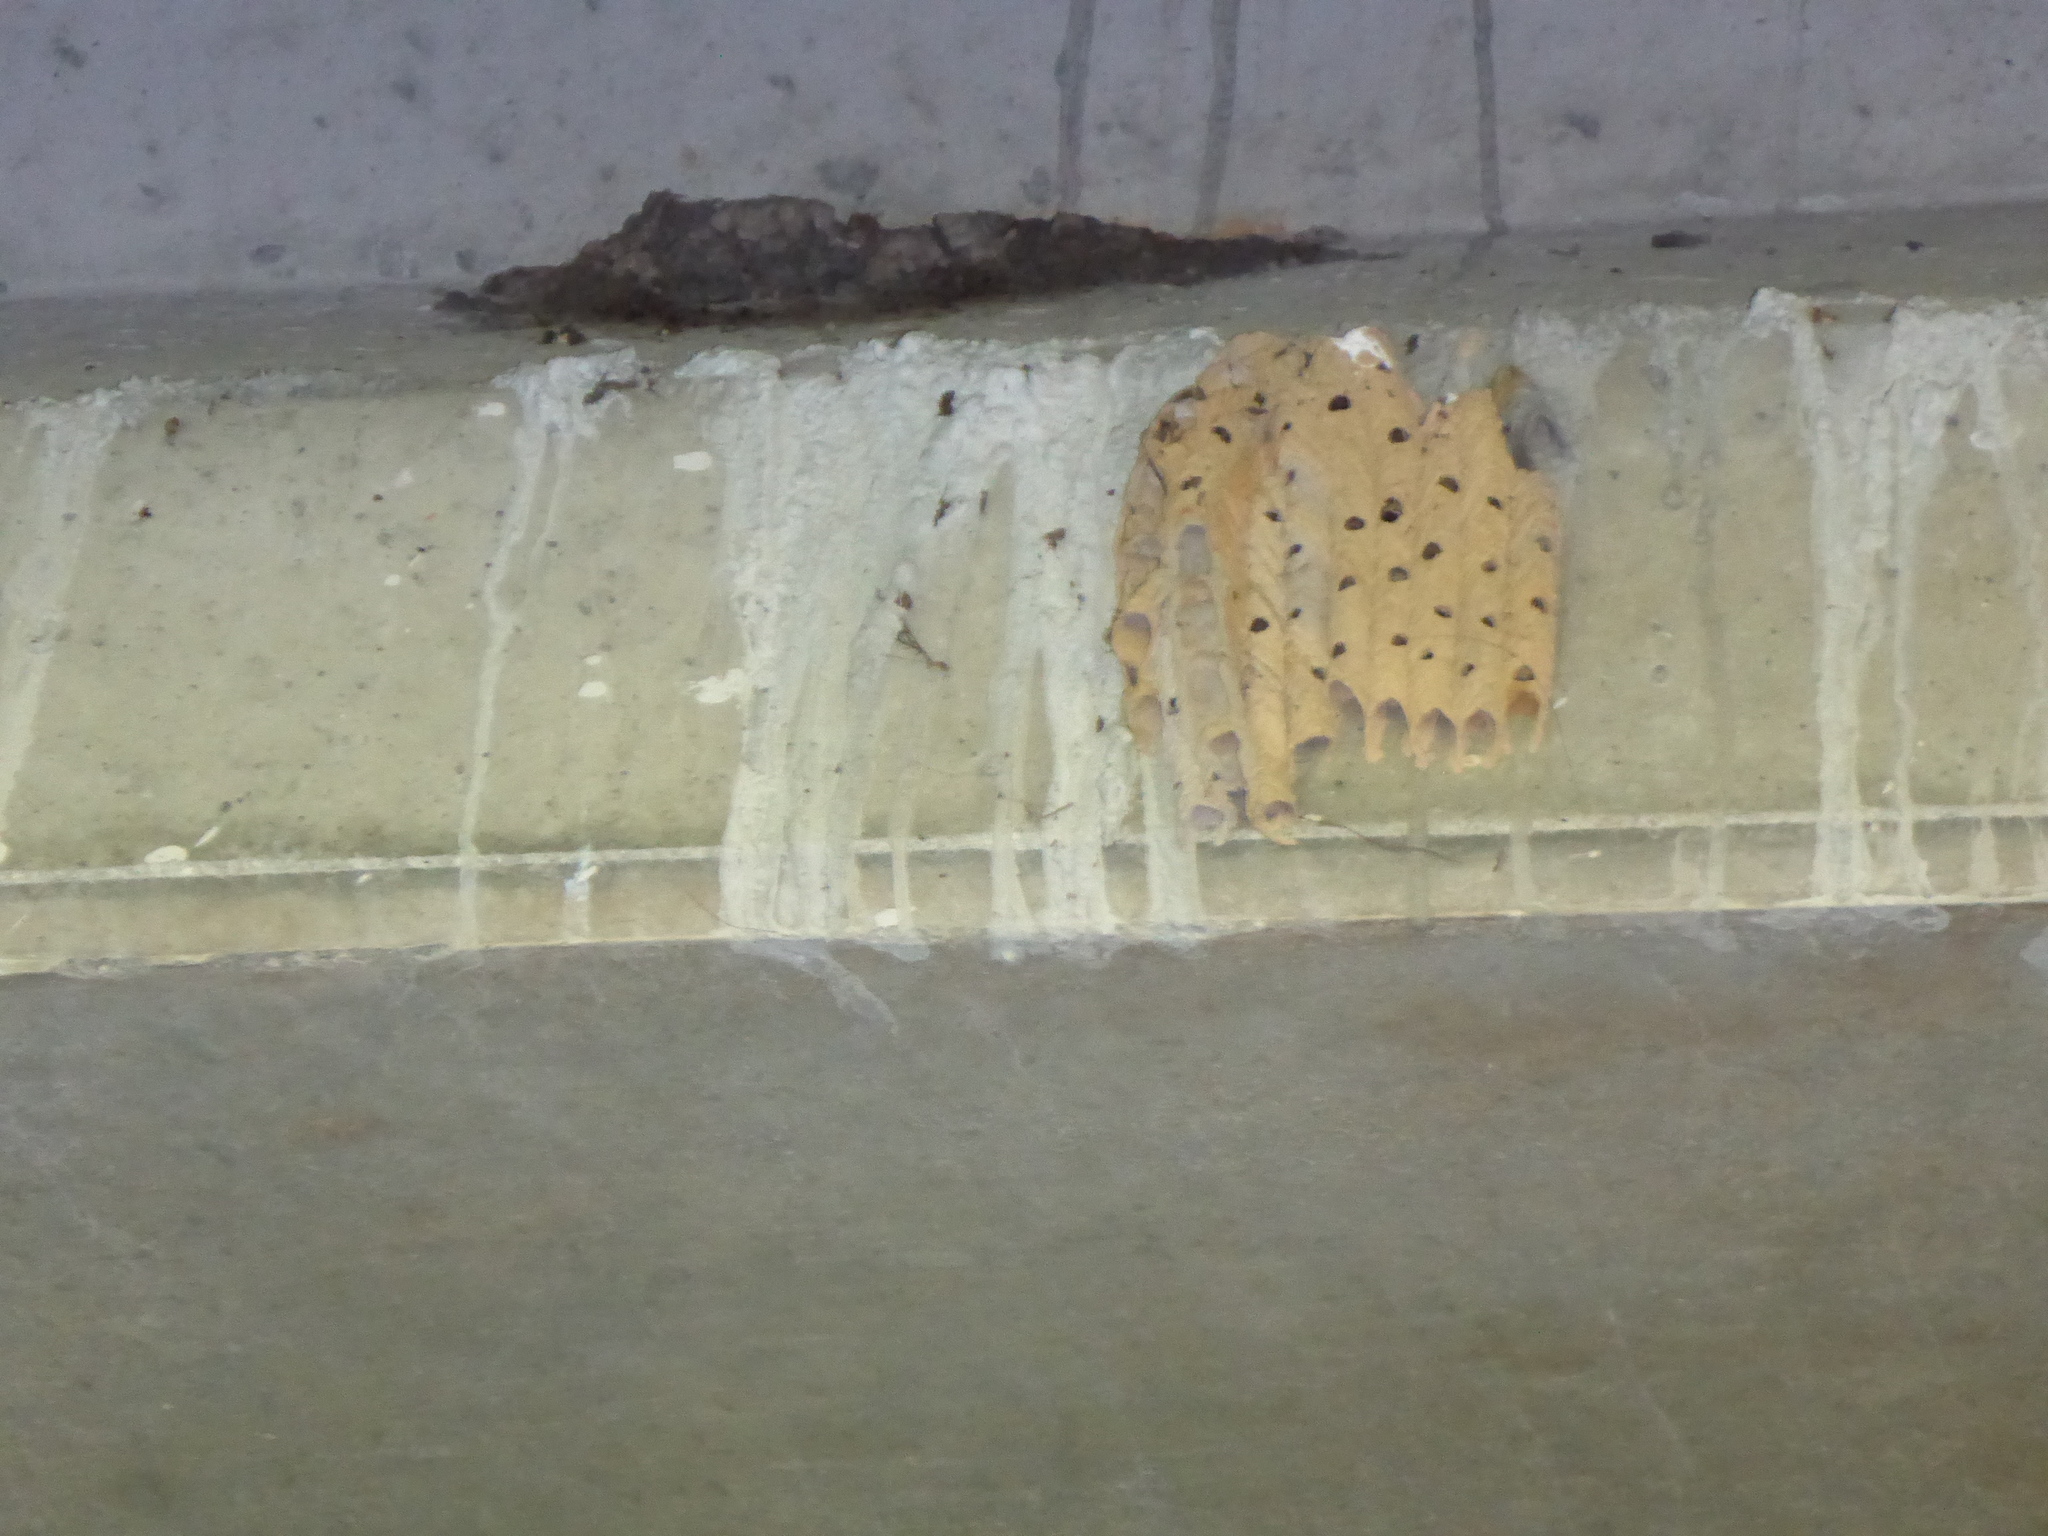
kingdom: Animalia
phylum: Arthropoda
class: Insecta
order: Hymenoptera
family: Crabronidae
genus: Trypoxylon
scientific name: Trypoxylon politum
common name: Organ-pipe mud-dauber wasp
